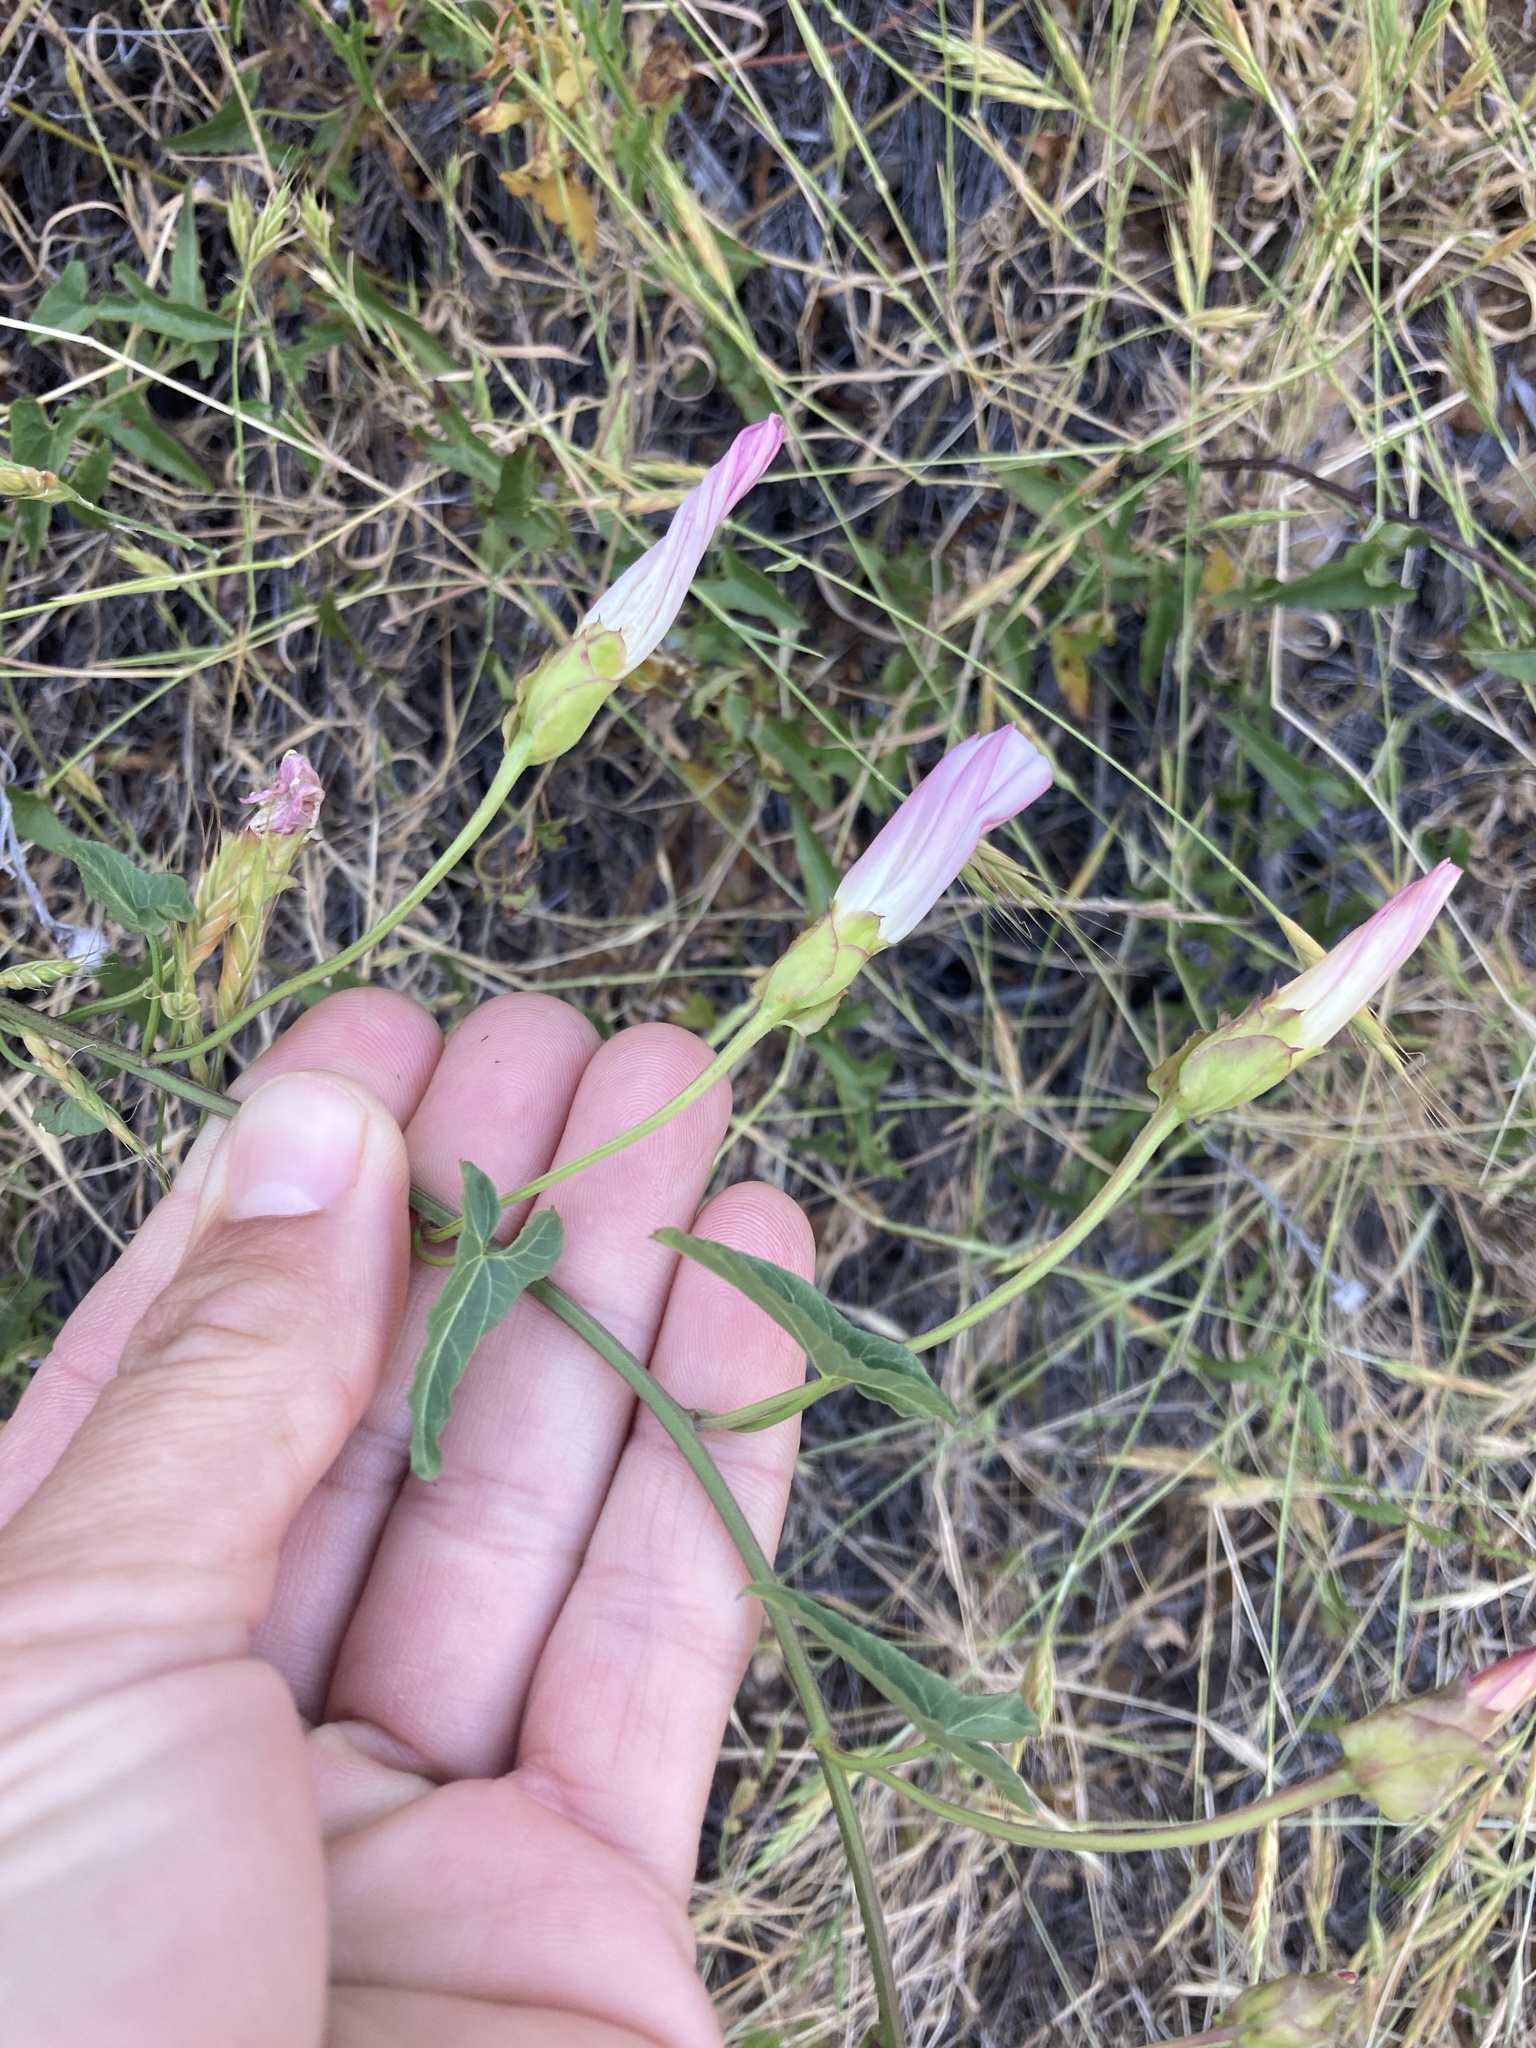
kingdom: Plantae
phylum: Tracheophyta
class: Magnoliopsida
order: Solanales
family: Convolvulaceae
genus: Calystegia
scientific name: Calystegia macrostegia
